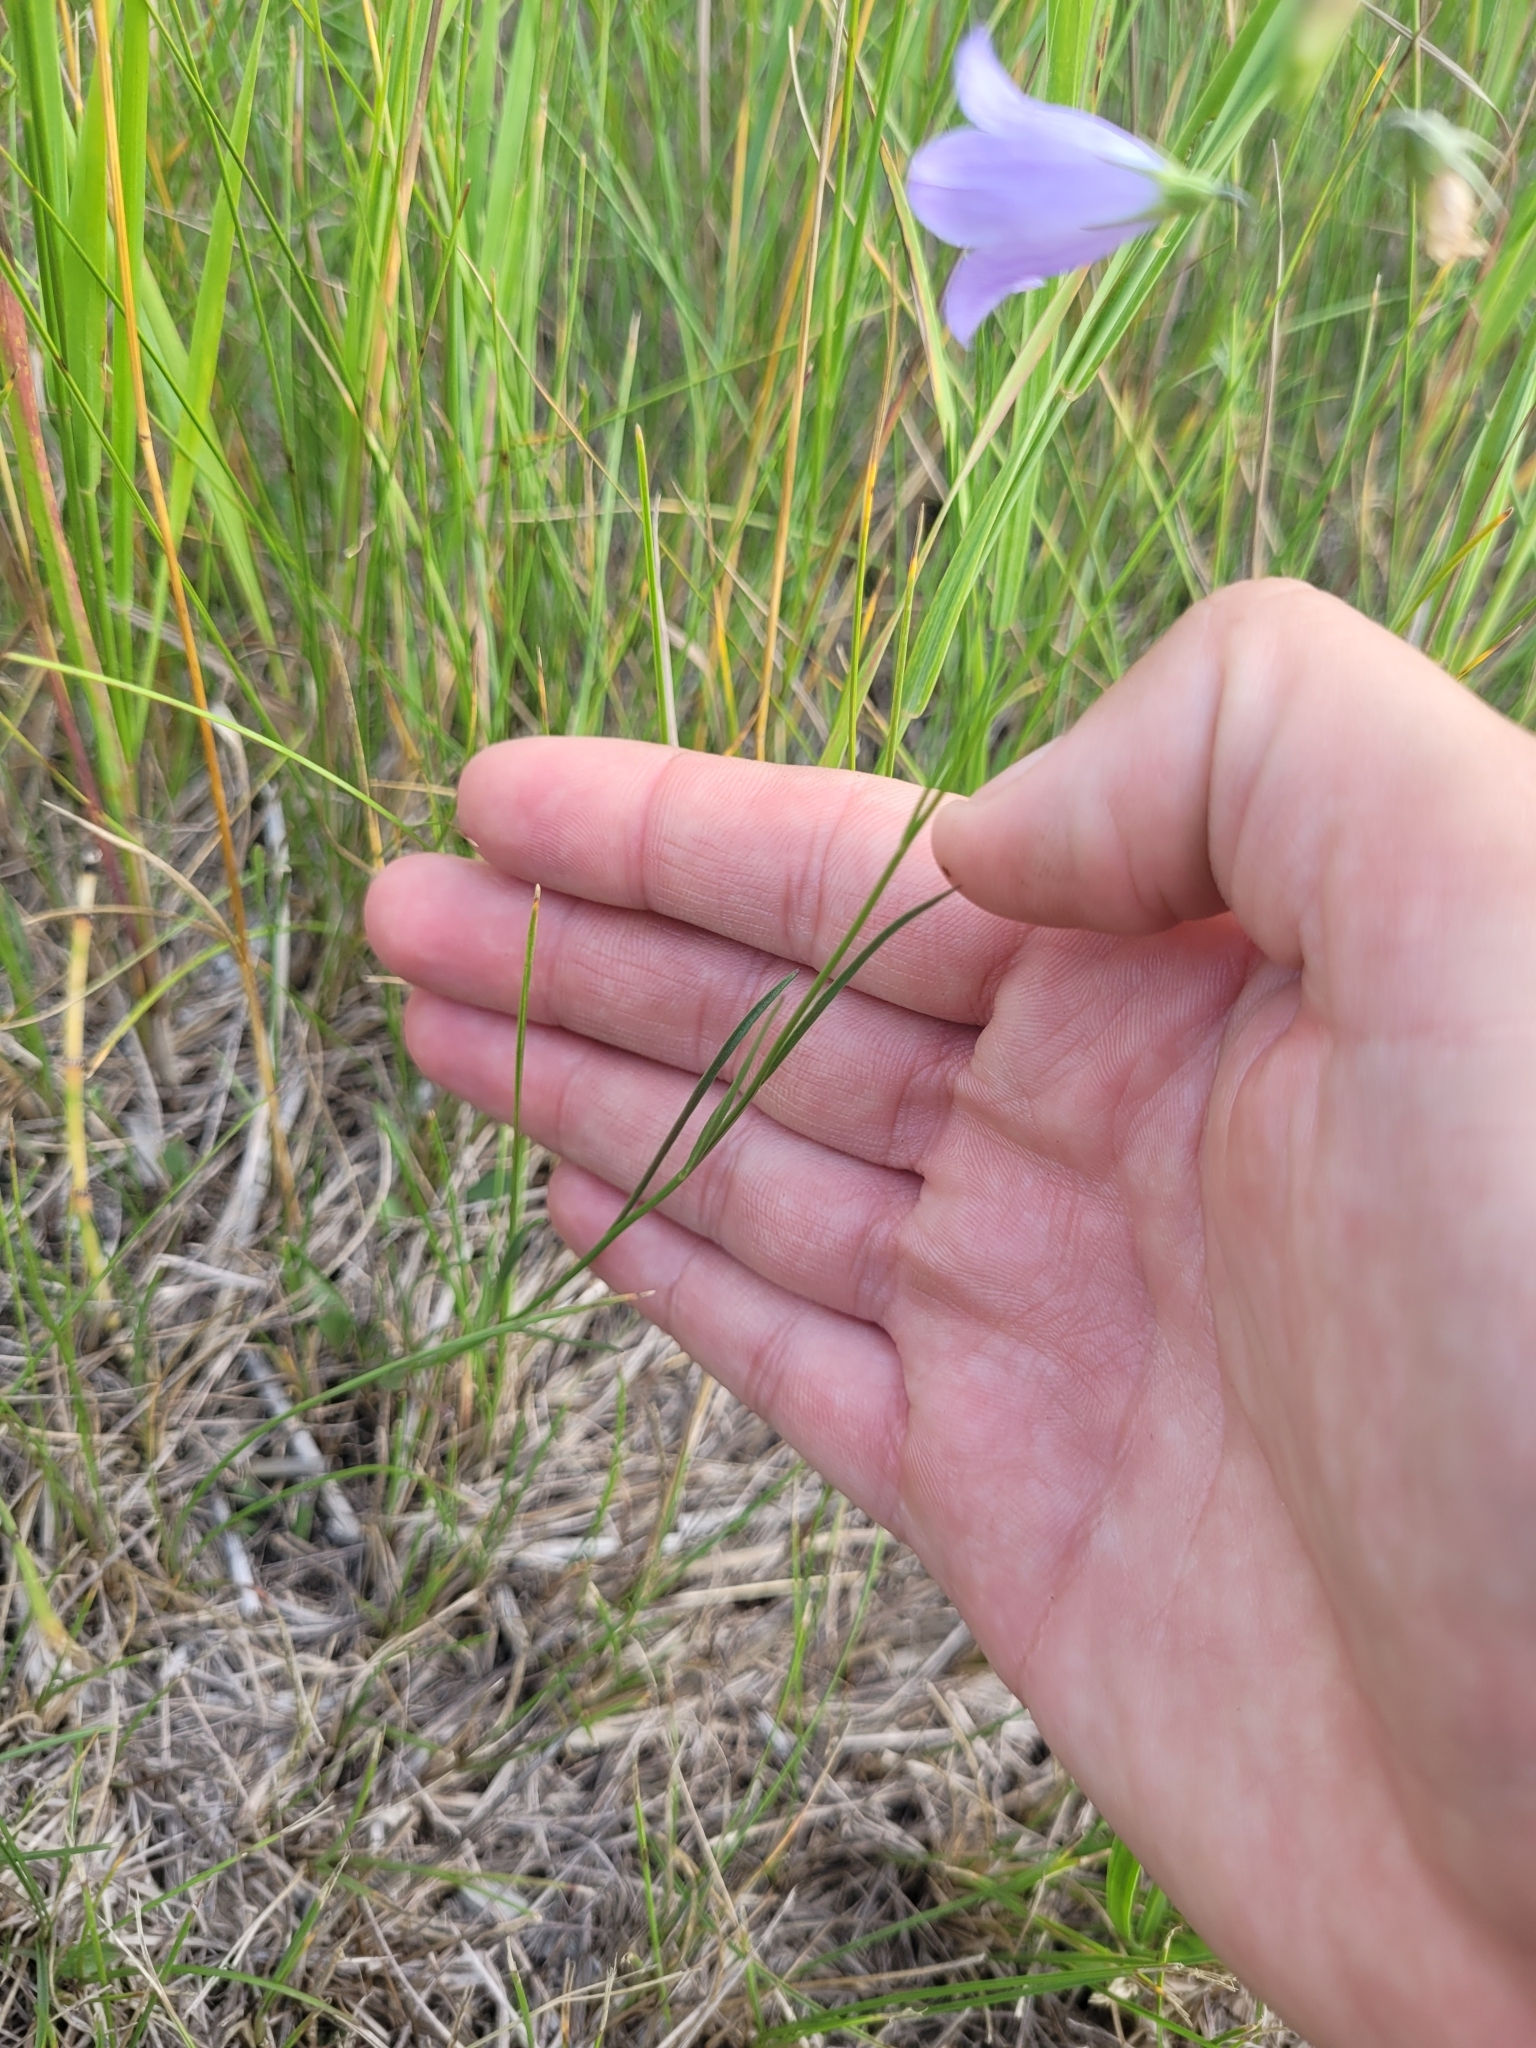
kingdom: Plantae
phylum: Tracheophyta
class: Magnoliopsida
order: Asterales
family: Campanulaceae
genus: Campanula
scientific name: Campanula alaskana
